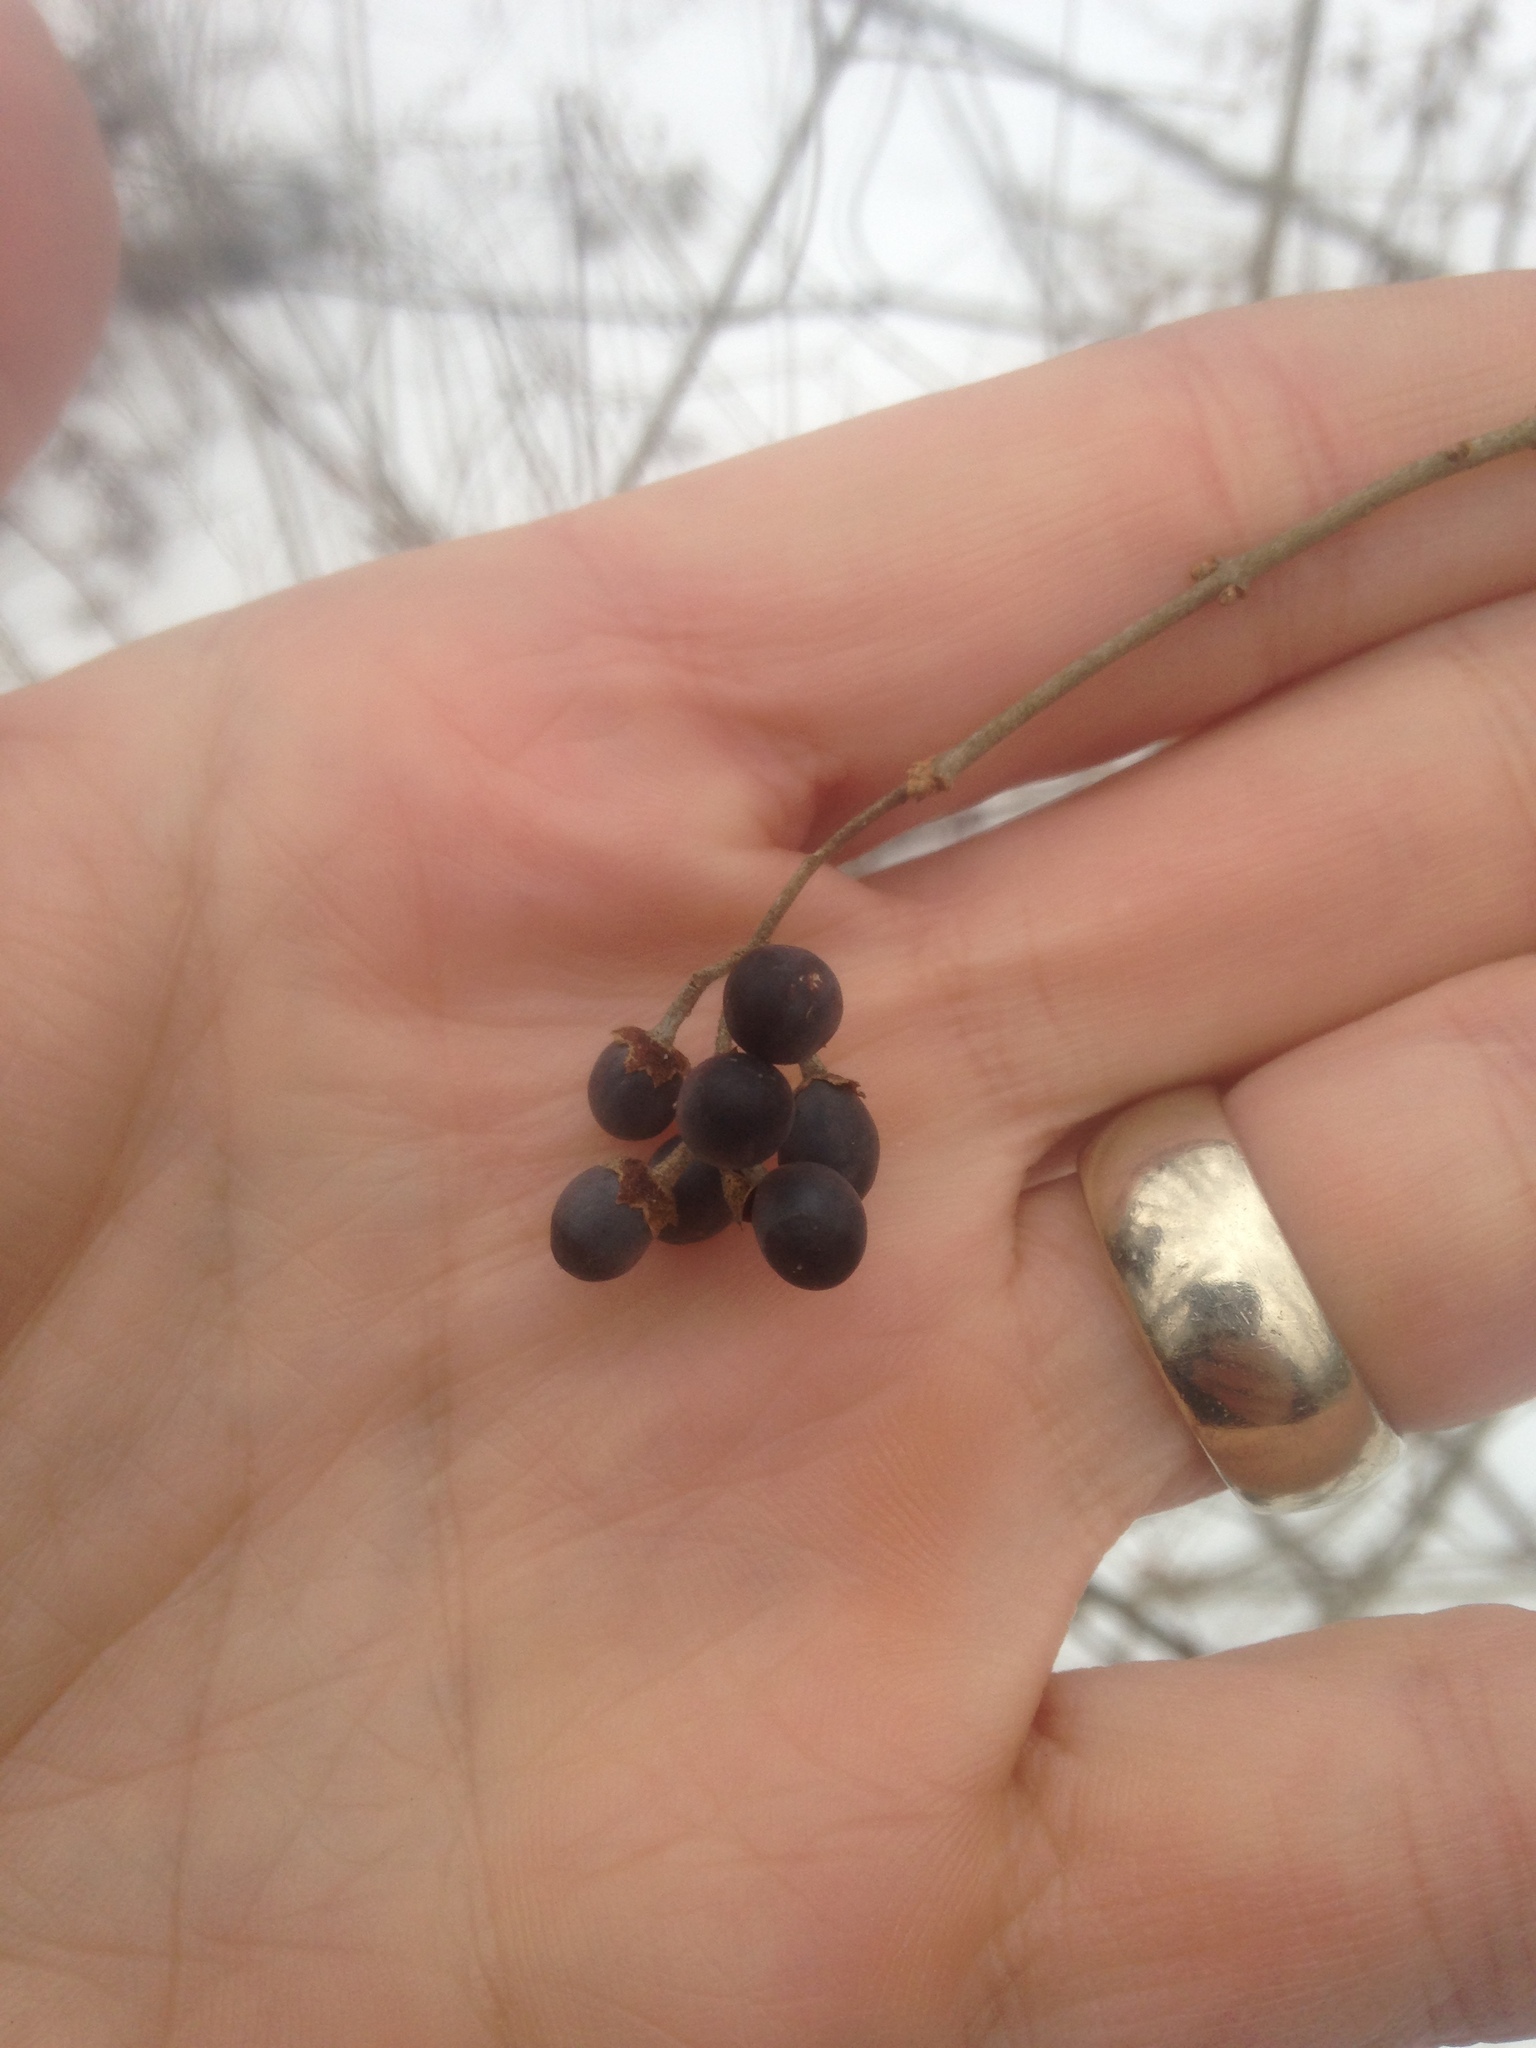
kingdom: Plantae
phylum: Tracheophyta
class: Magnoliopsida
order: Lamiales
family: Oleaceae
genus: Ligustrum
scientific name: Ligustrum
